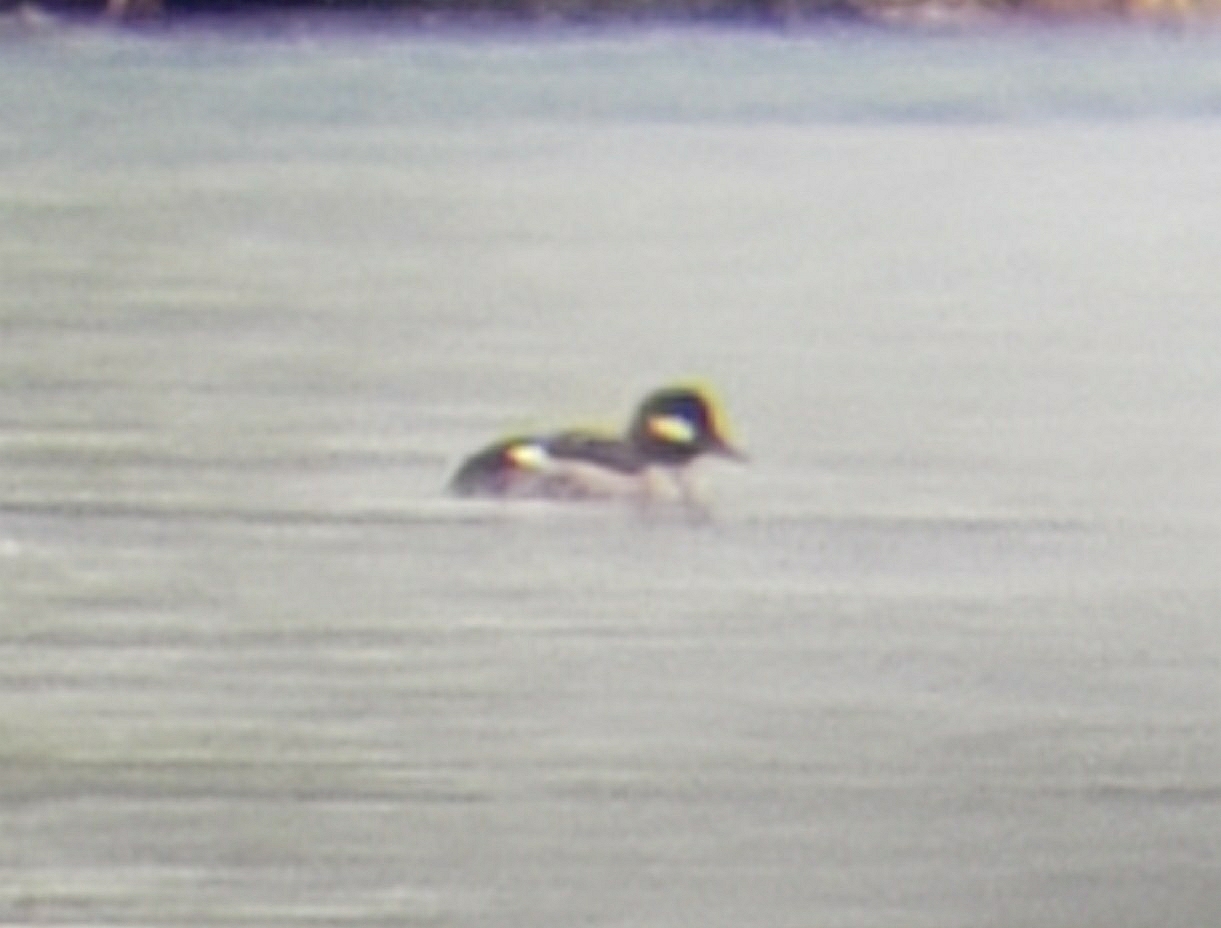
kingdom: Animalia
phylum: Chordata
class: Aves
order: Anseriformes
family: Anatidae
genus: Bucephala
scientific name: Bucephala albeola
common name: Bufflehead
